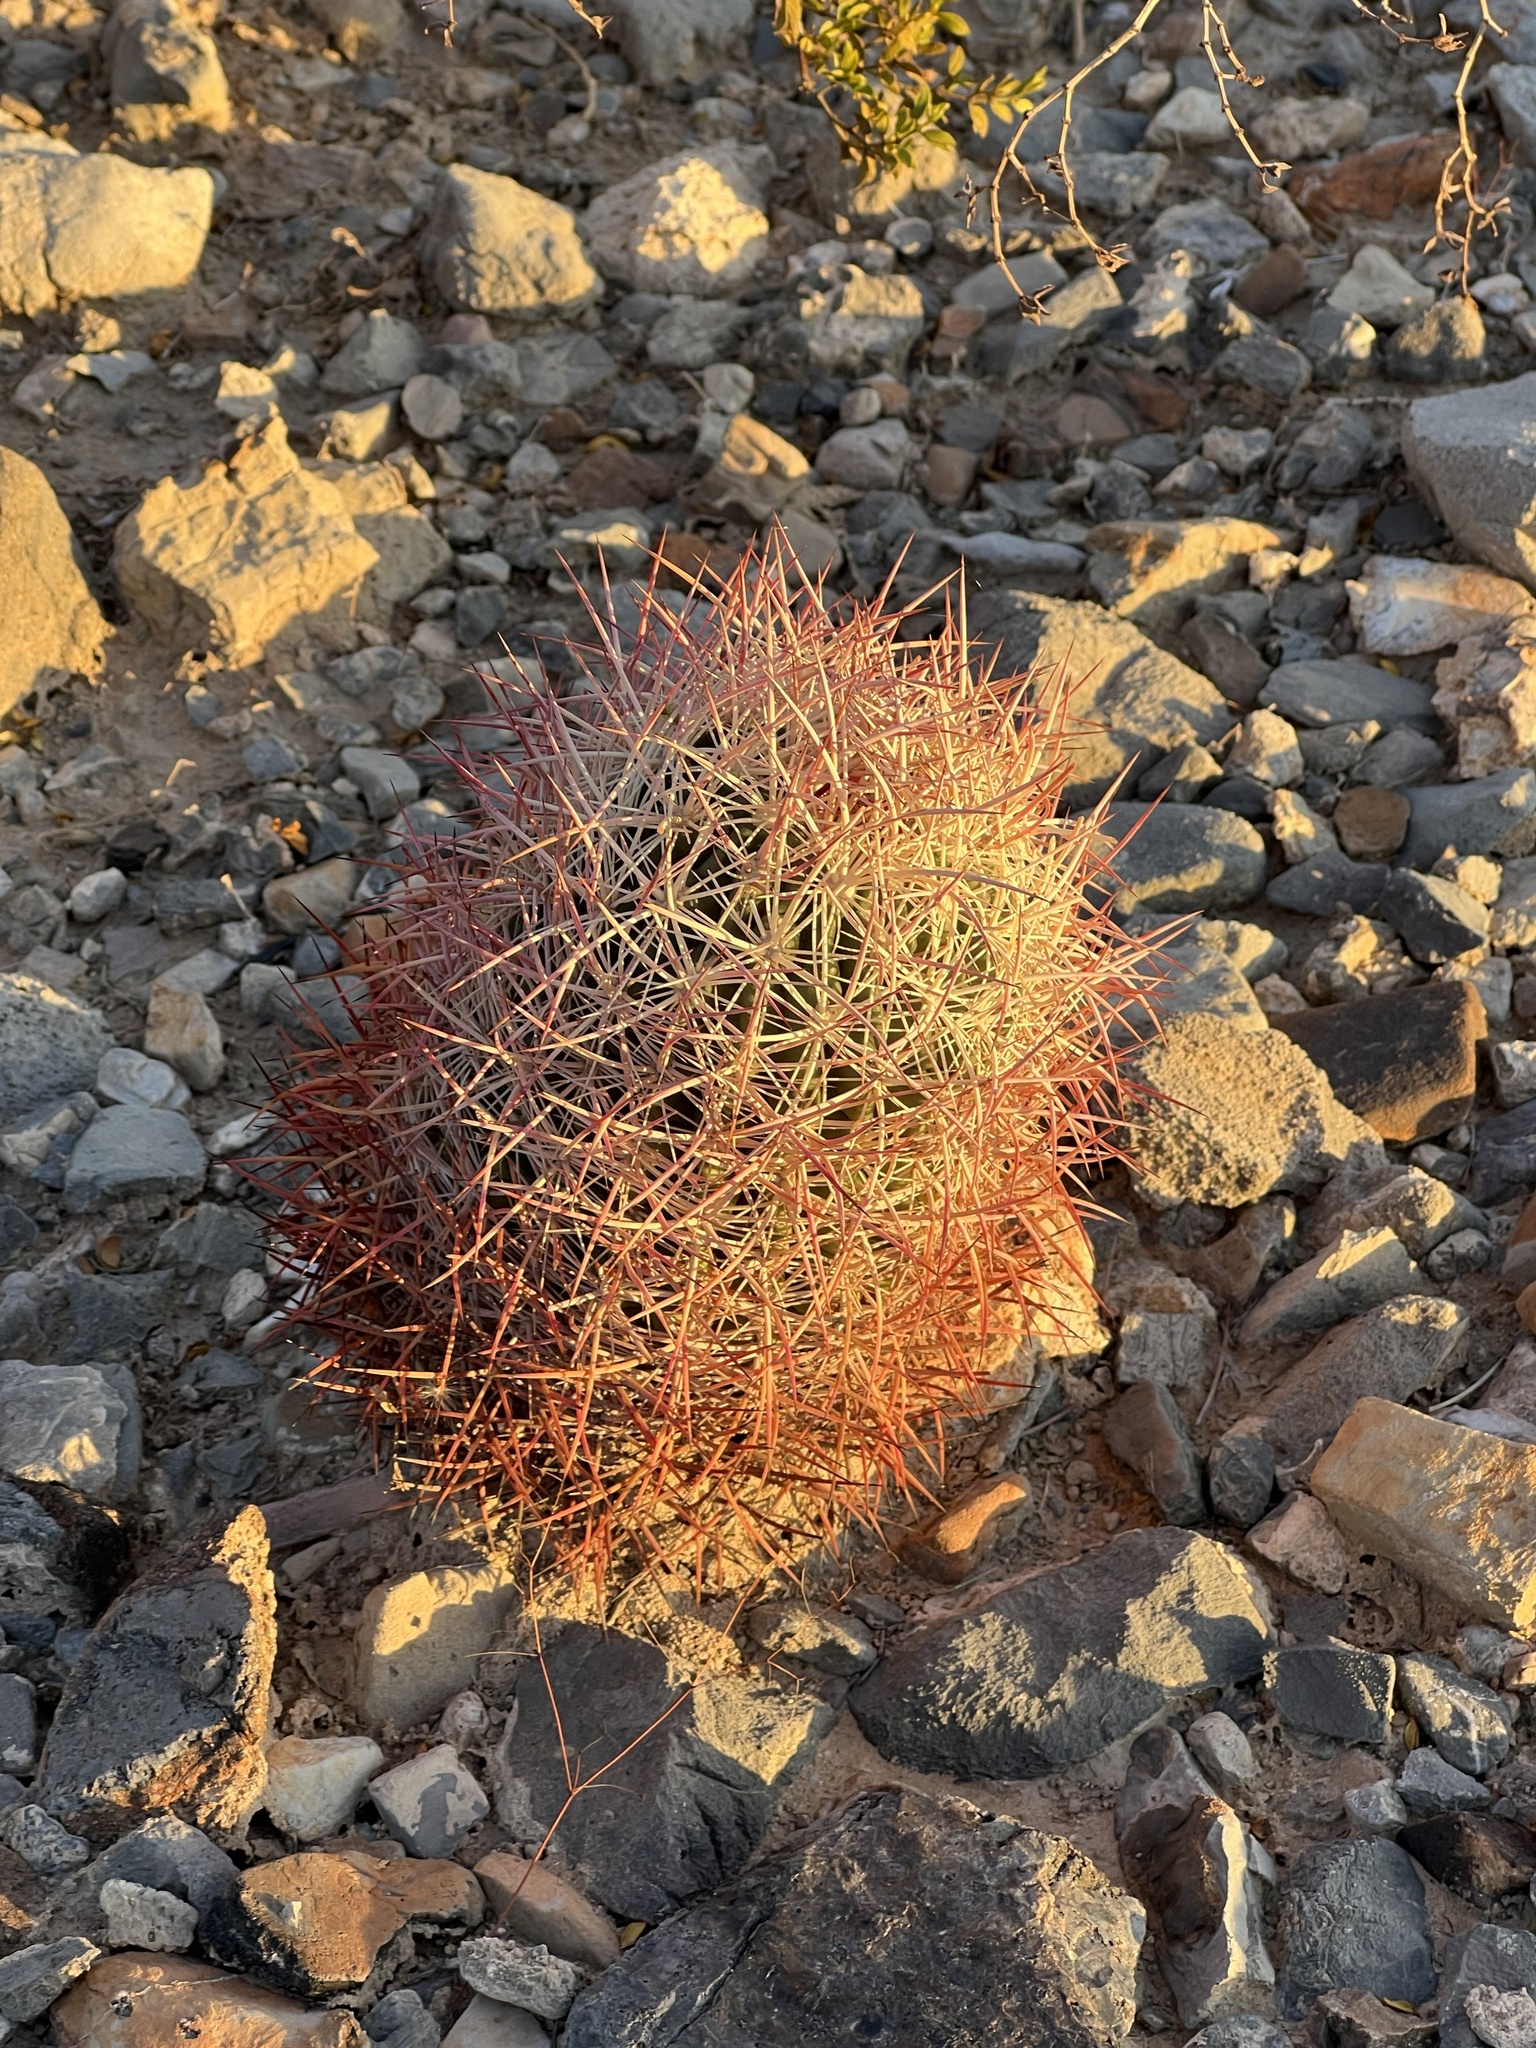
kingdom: Plantae
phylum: Tracheophyta
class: Magnoliopsida
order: Caryophyllales
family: Cactaceae
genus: Sclerocactus
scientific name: Sclerocactus johnsonii
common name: Eight-spine fishhook cactus
